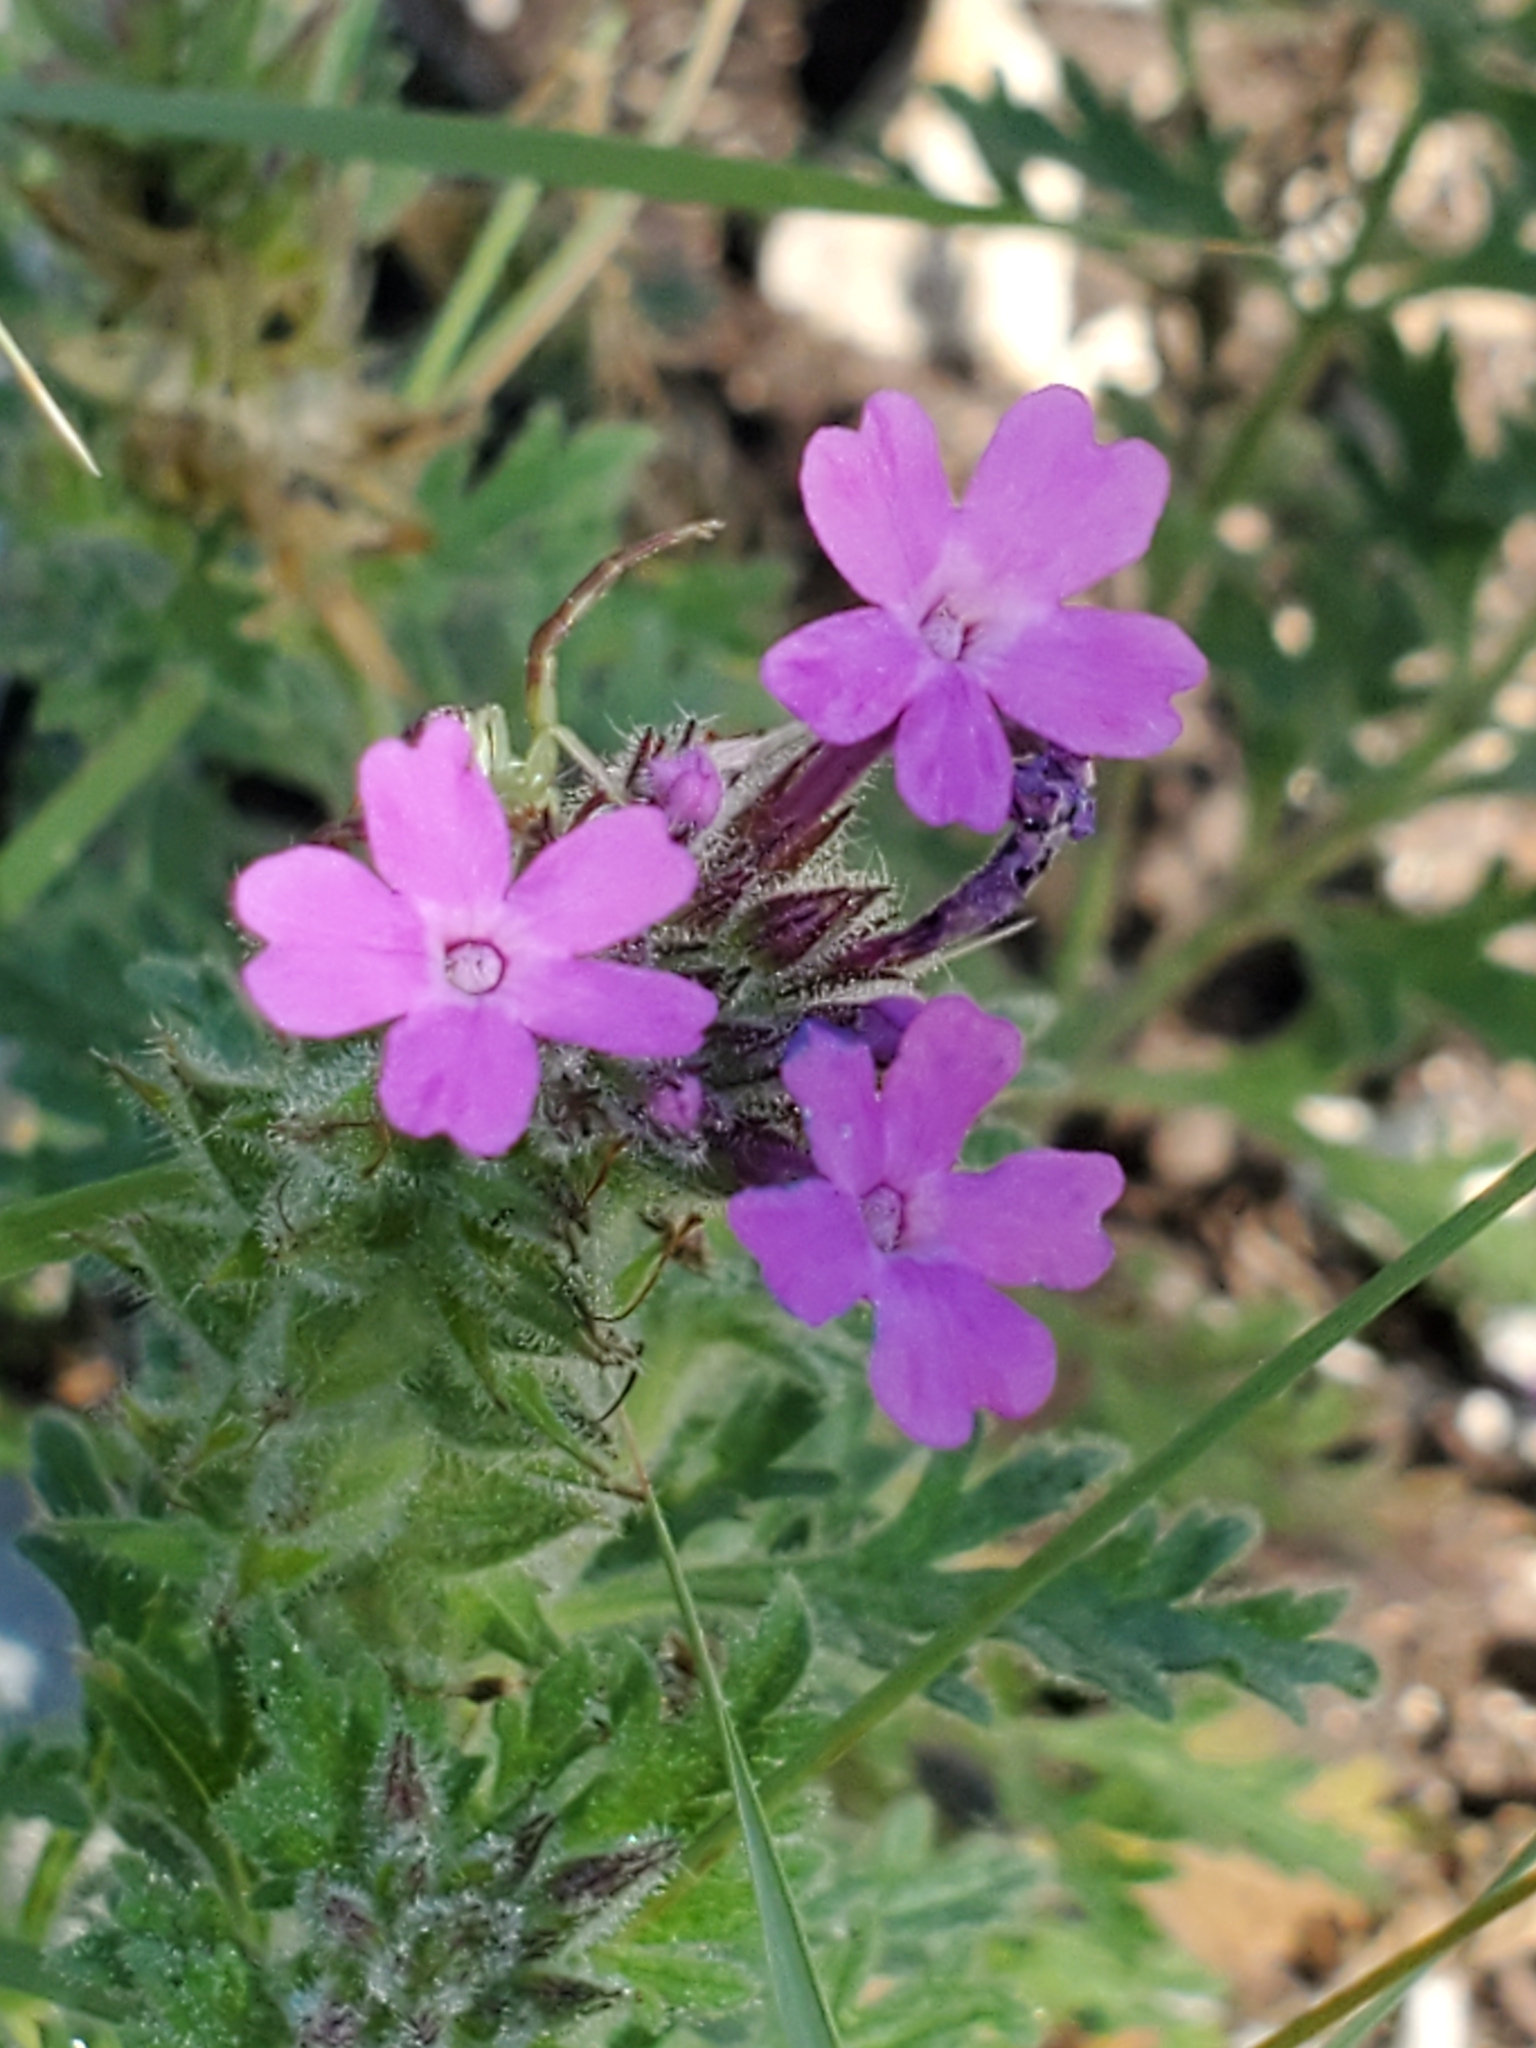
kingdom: Plantae
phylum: Tracheophyta
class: Magnoliopsida
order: Lamiales
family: Verbenaceae
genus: Verbena
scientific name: Verbena tumidula
